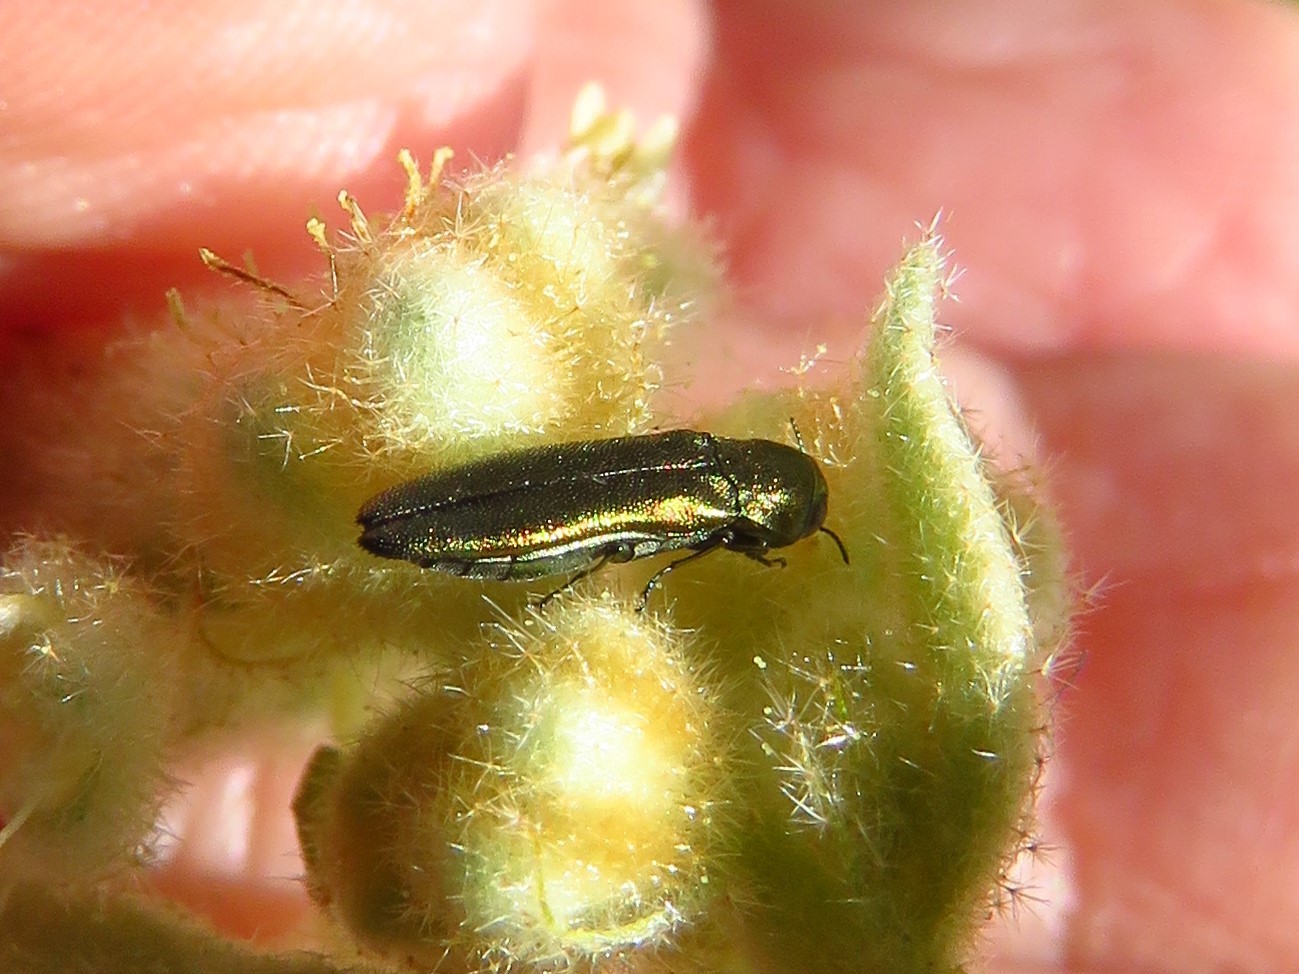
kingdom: Animalia
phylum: Arthropoda
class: Insecta
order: Coleoptera
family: Buprestidae
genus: Agrilus
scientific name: Agrilus lacustris
